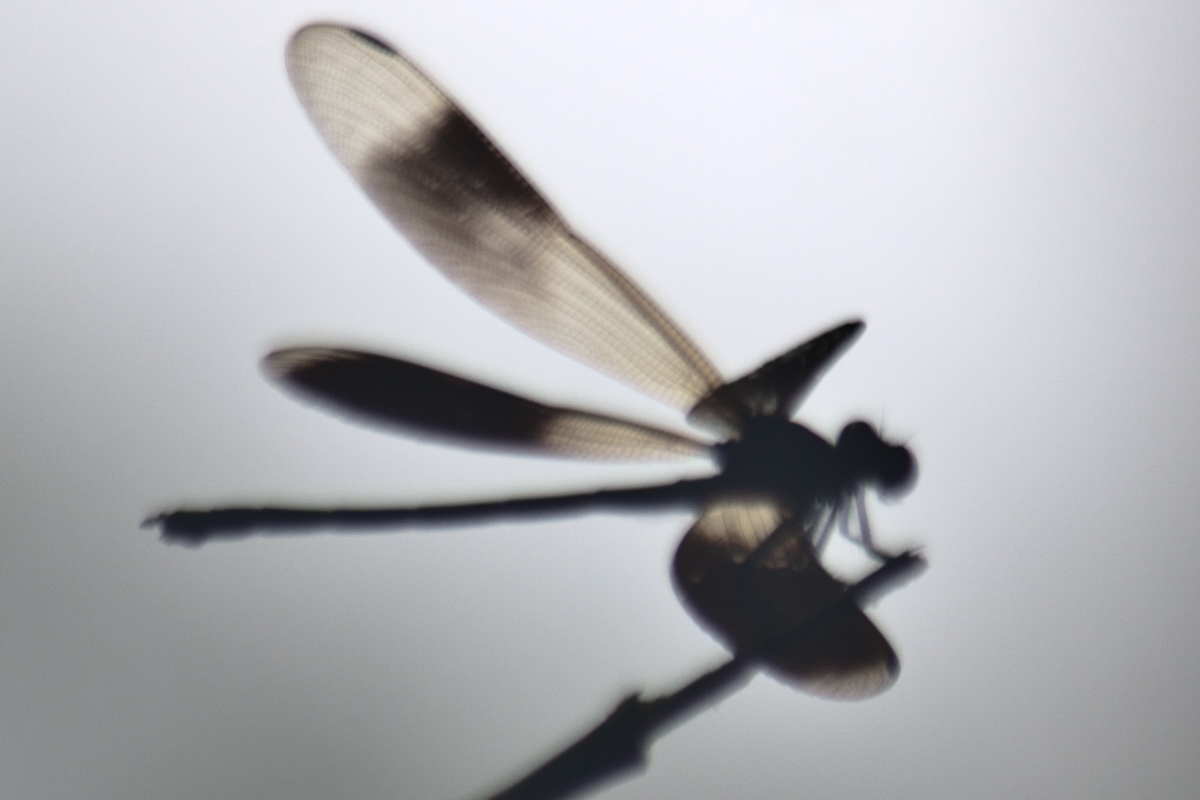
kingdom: Animalia
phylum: Arthropoda
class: Insecta
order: Odonata
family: Euphaeidae
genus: Euphaea
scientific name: Euphaea masoni
